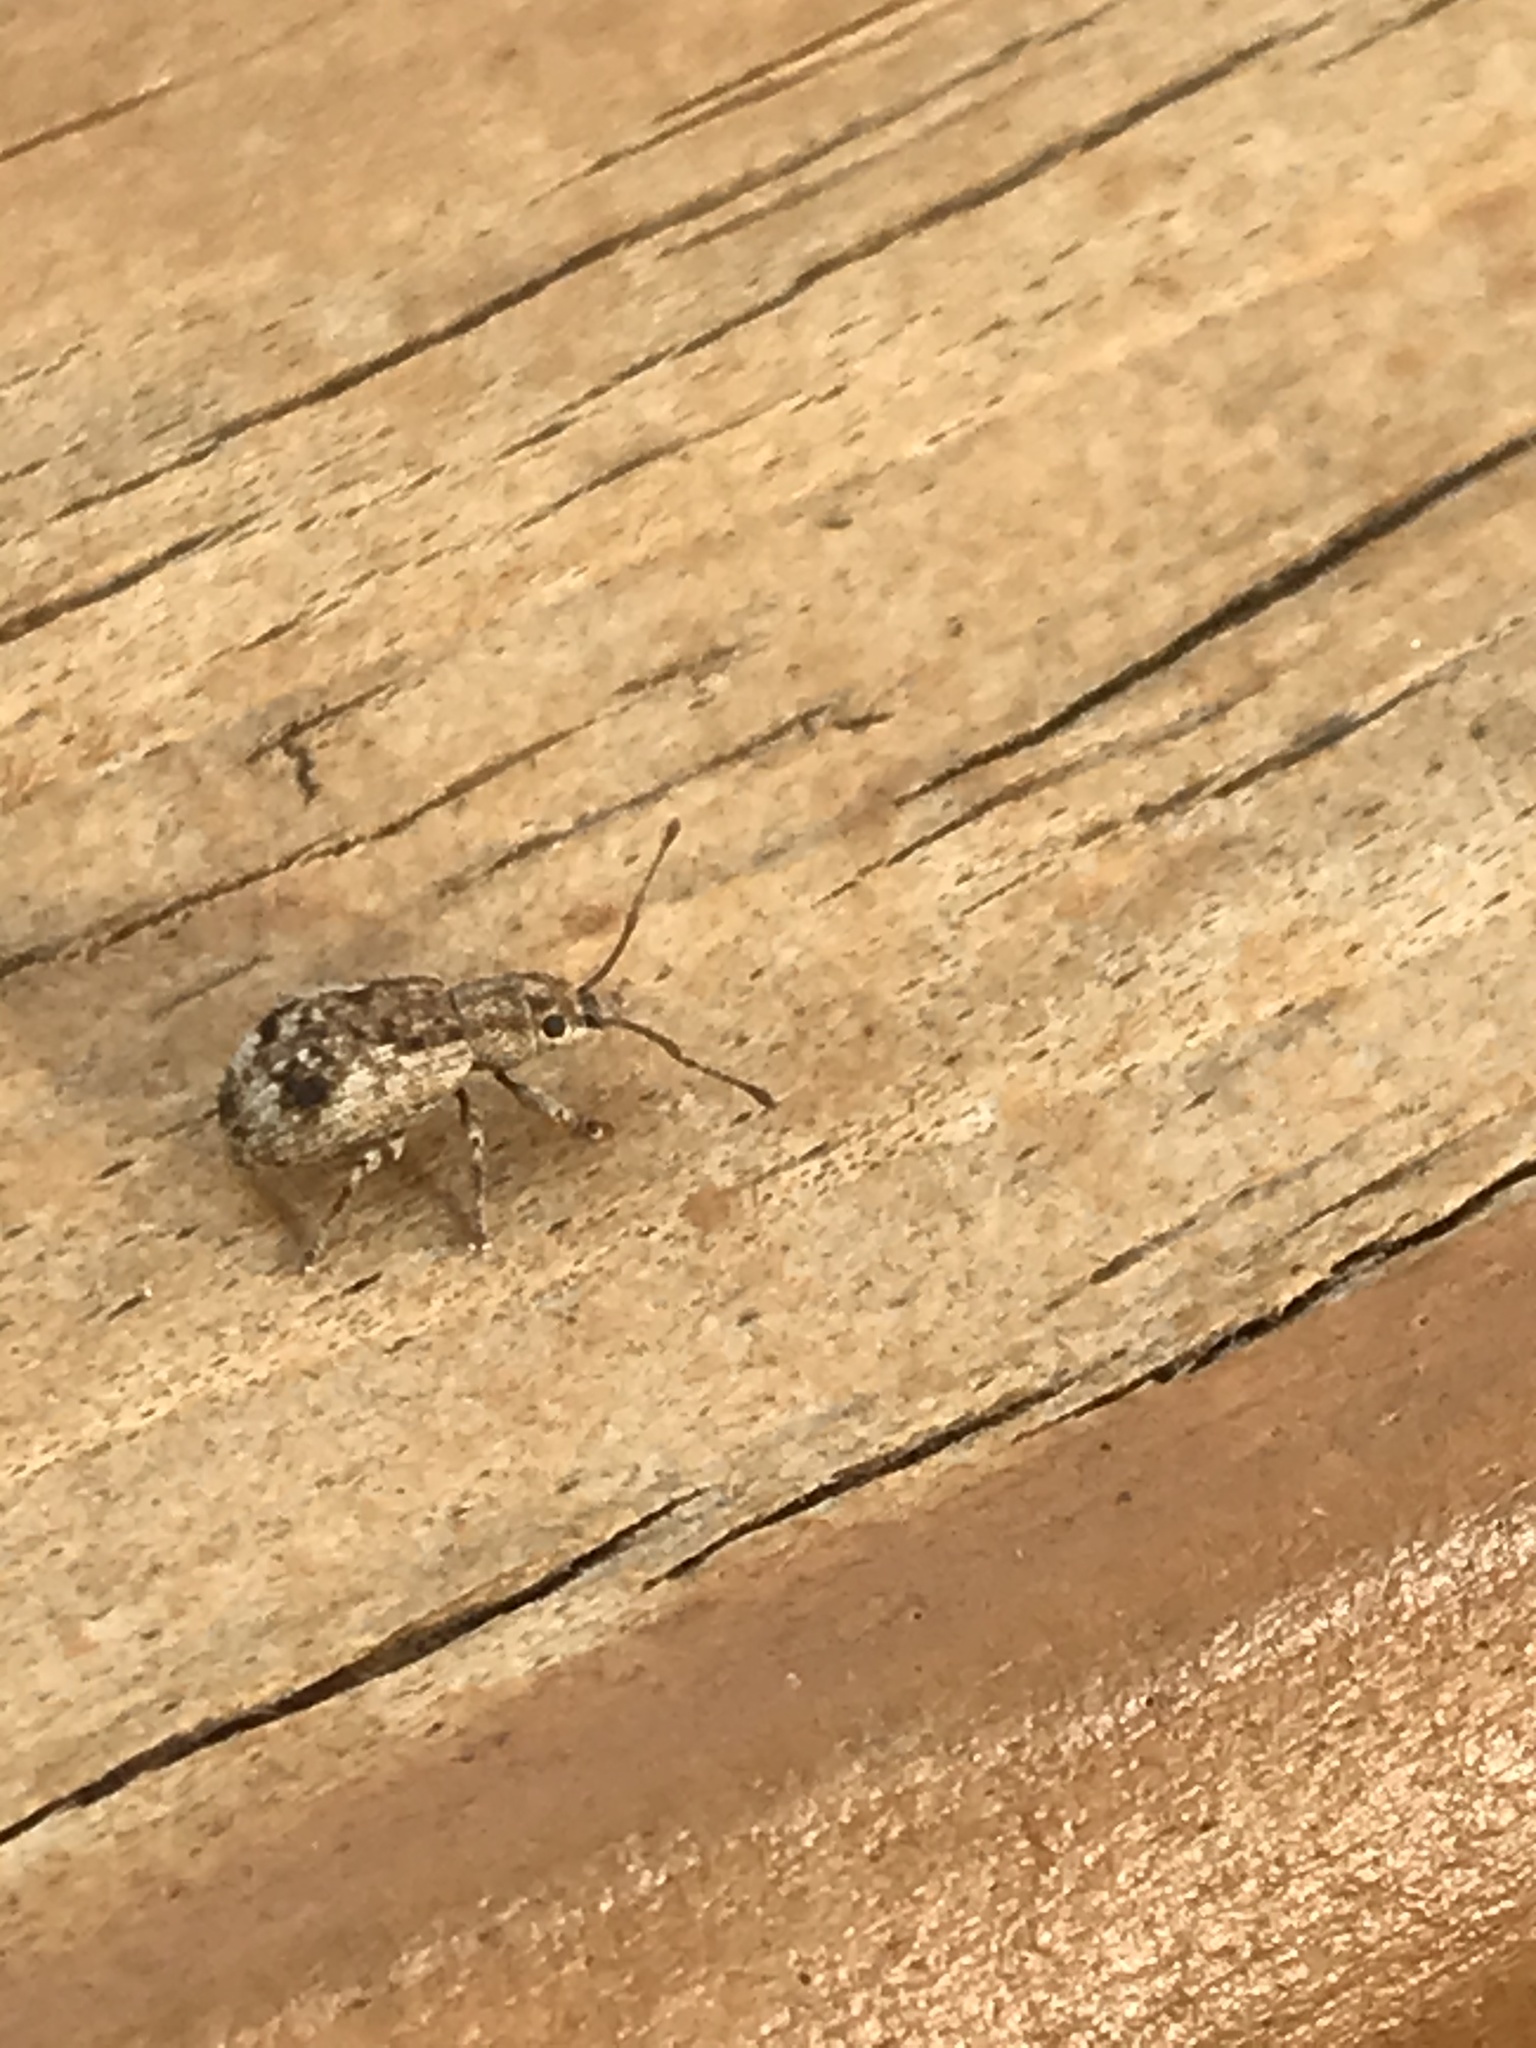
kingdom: Animalia
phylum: Arthropoda
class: Insecta
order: Coleoptera
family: Curculionidae
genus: Pseudoedophrys
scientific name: Pseudoedophrys hilleri
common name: Weevil
